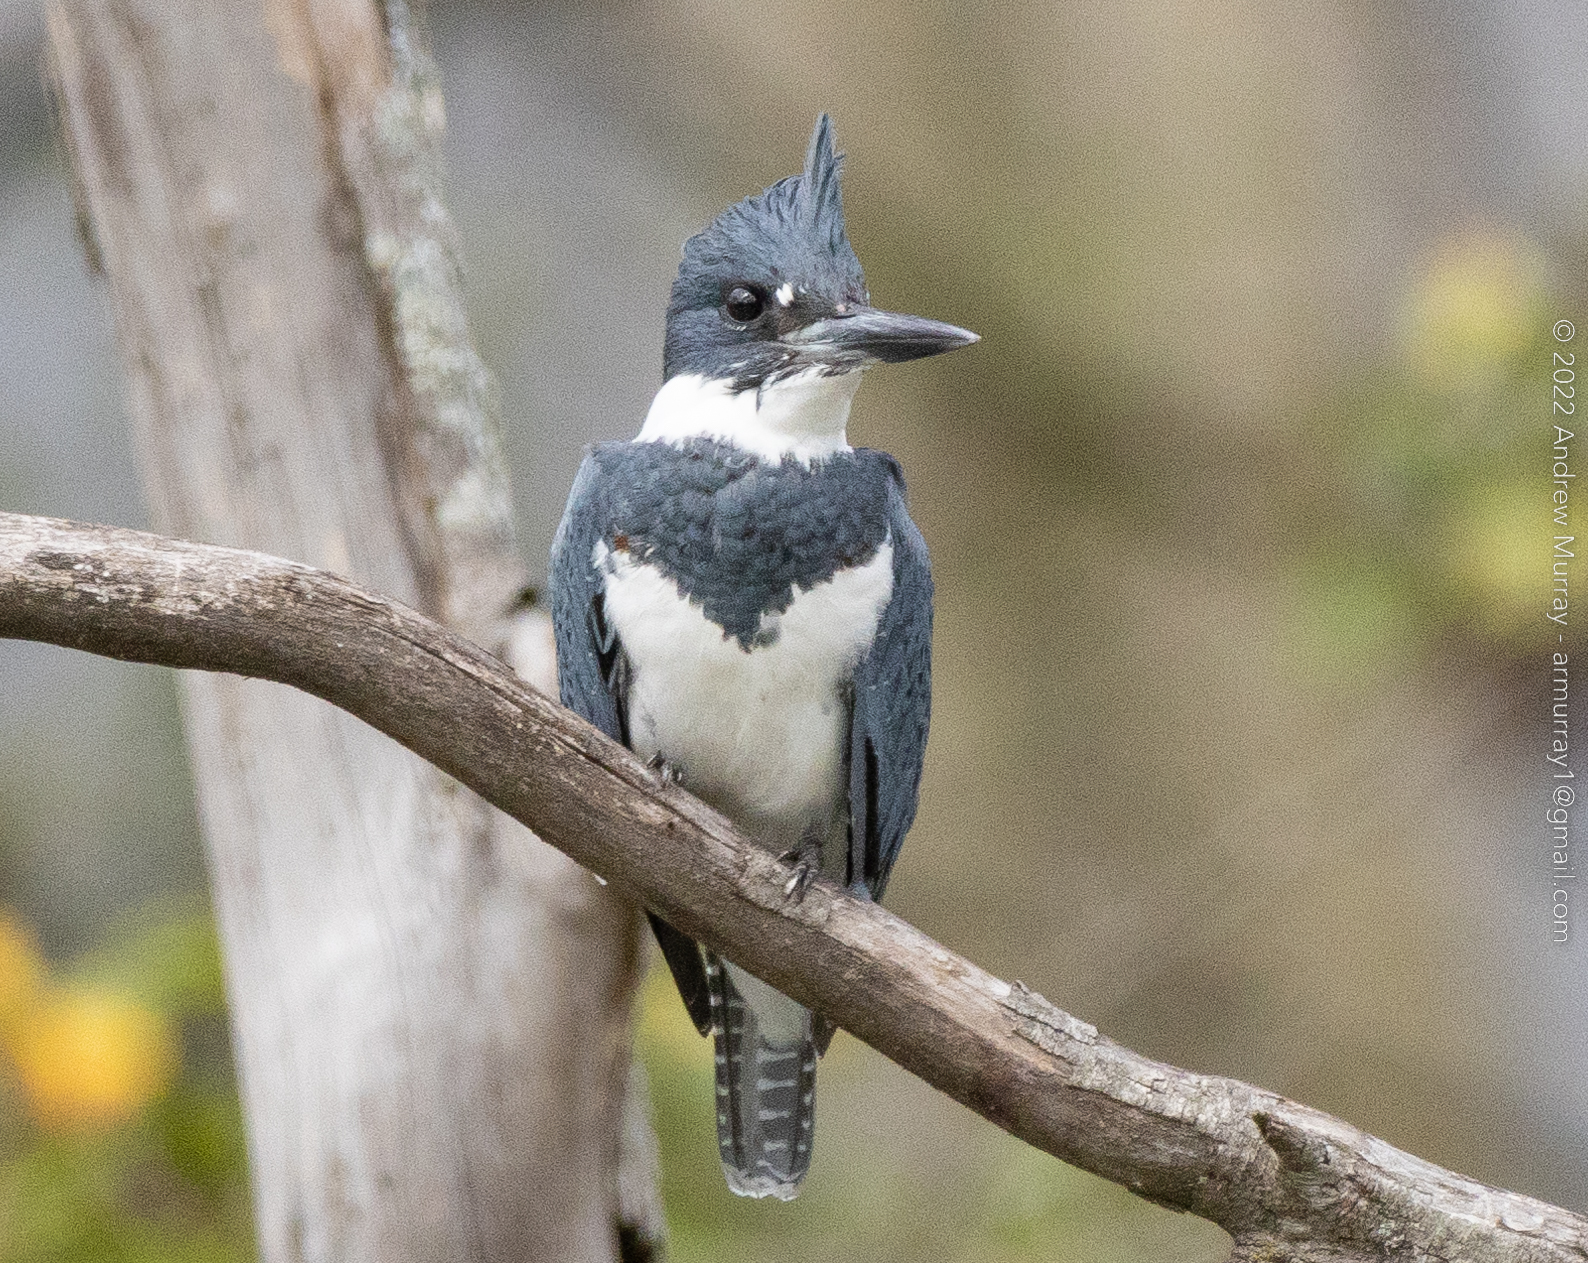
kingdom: Animalia
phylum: Chordata
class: Aves
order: Coraciiformes
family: Alcedinidae
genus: Megaceryle
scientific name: Megaceryle alcyon
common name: Belted kingfisher
